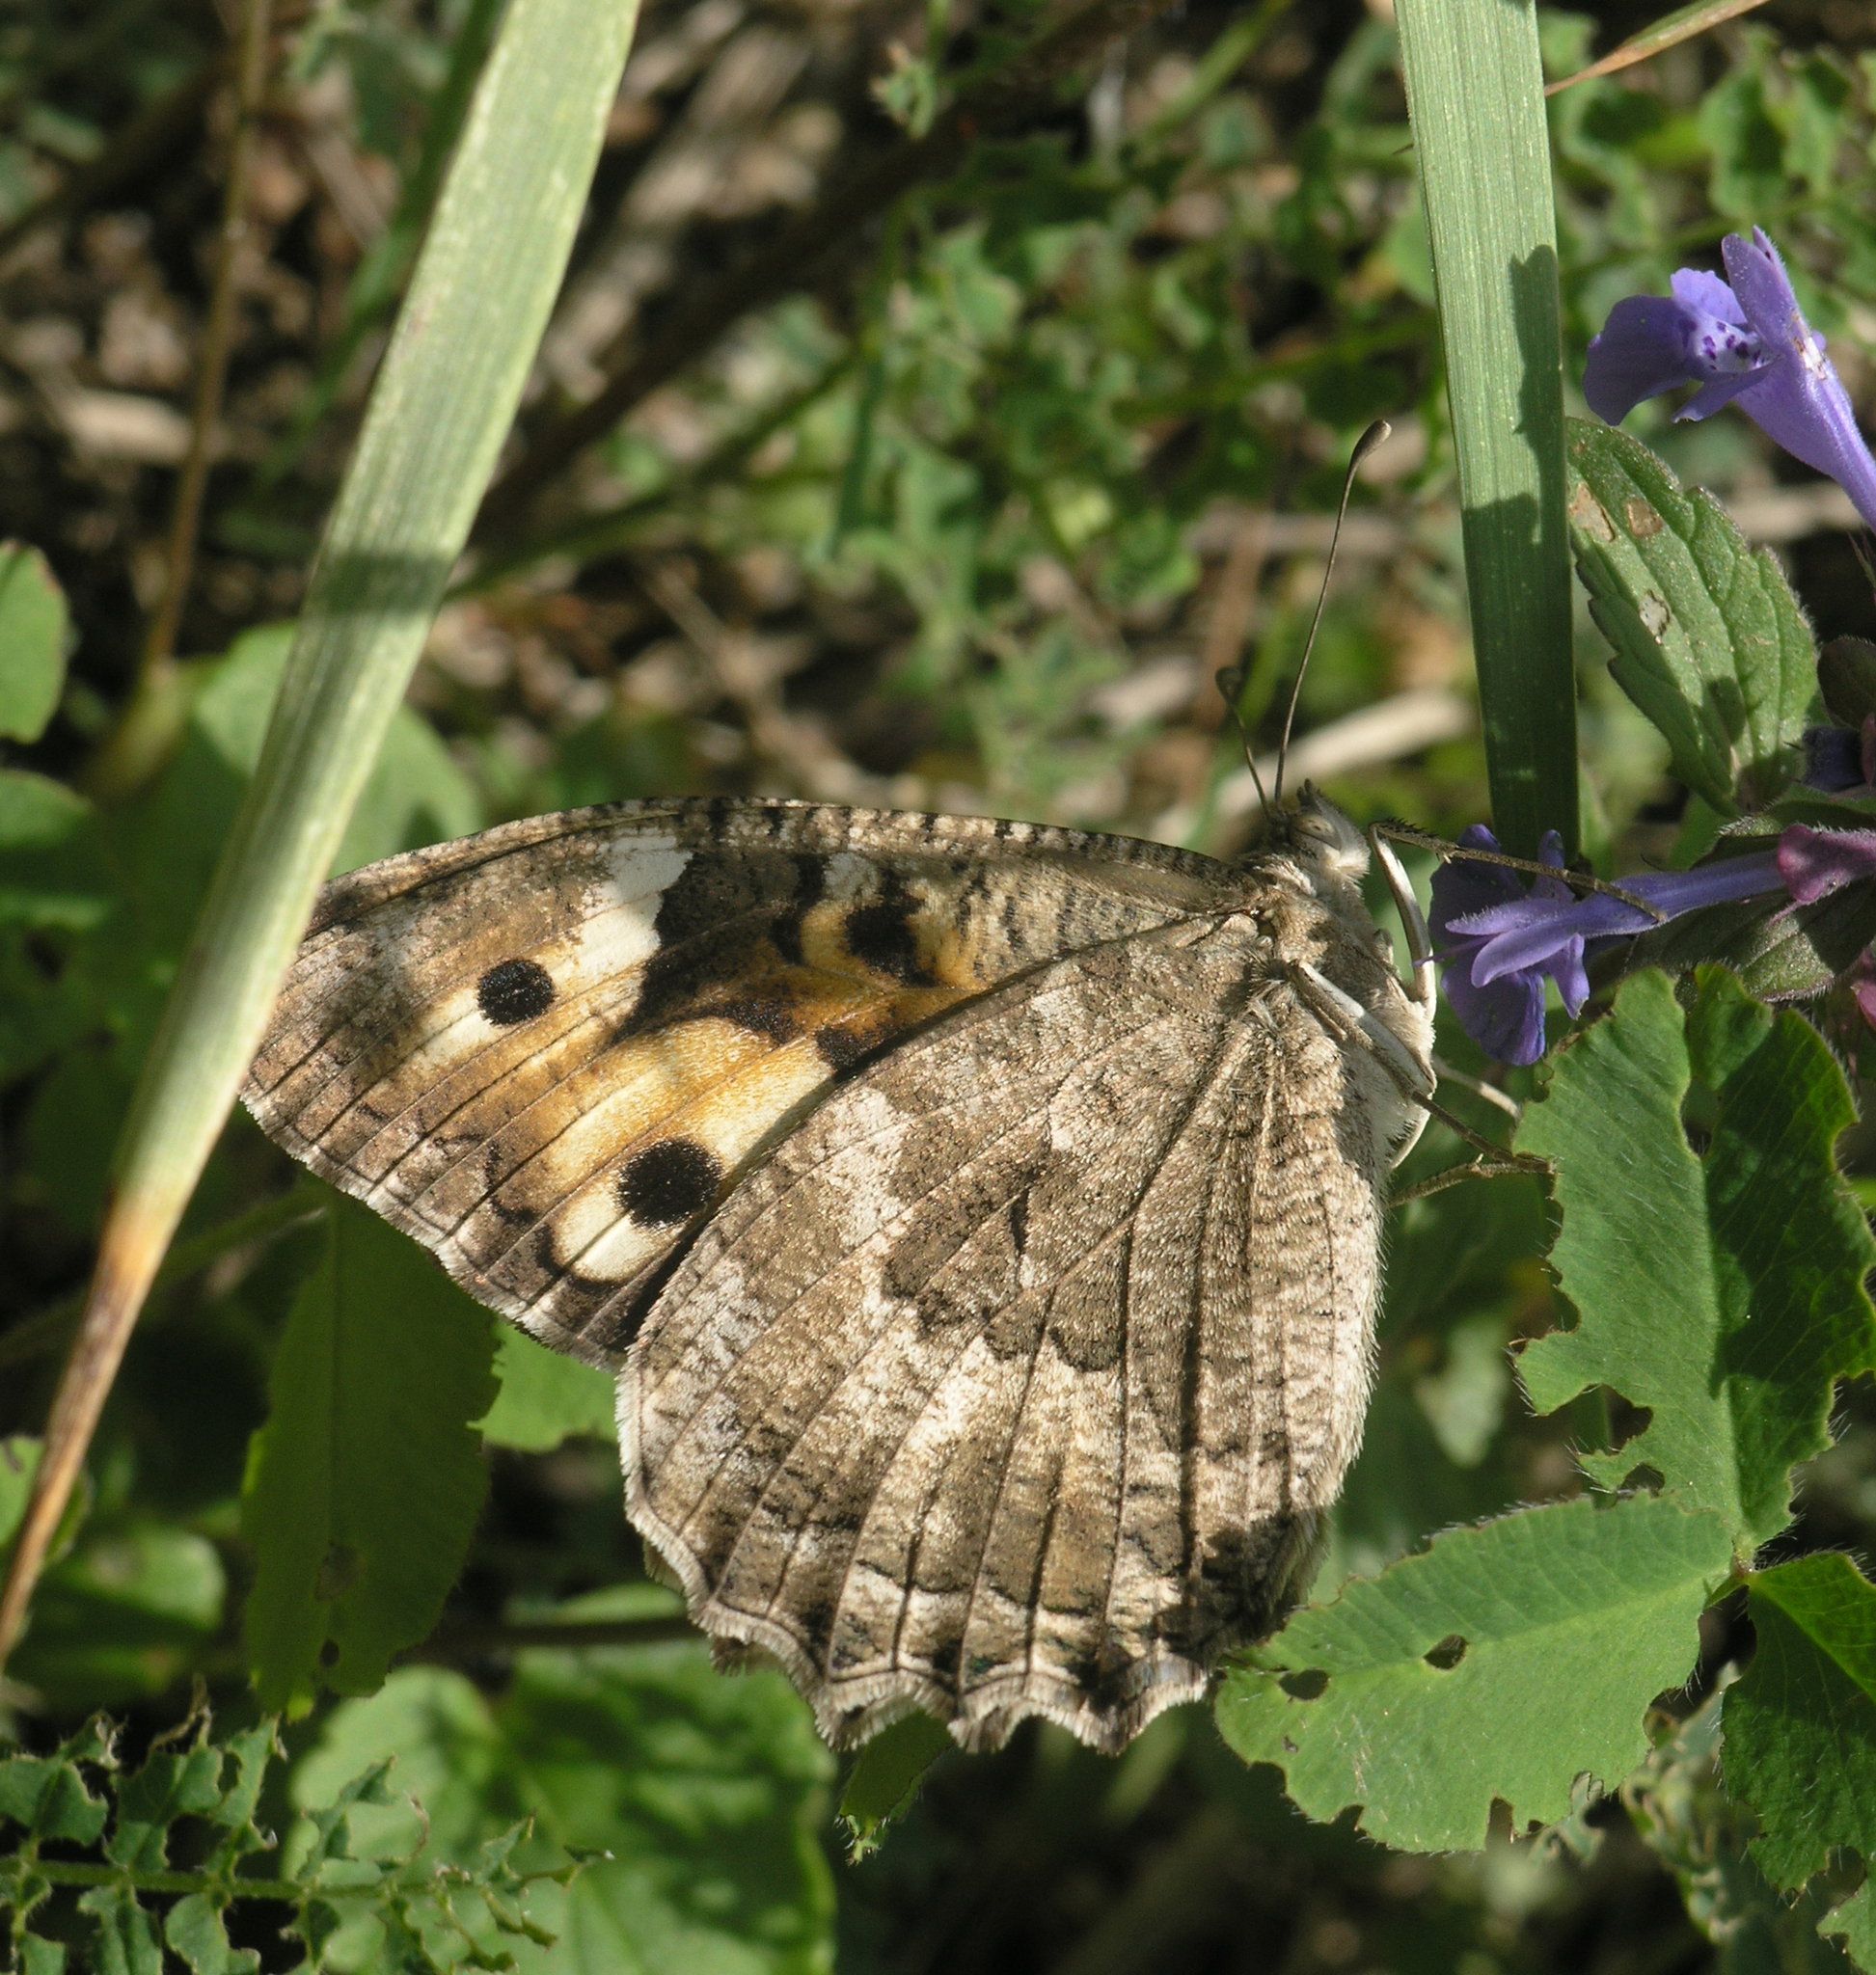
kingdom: Animalia
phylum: Arthropoda
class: Insecta
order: Lepidoptera
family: Nymphalidae
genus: Satyrus
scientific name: Satyrus Chazara enervata
